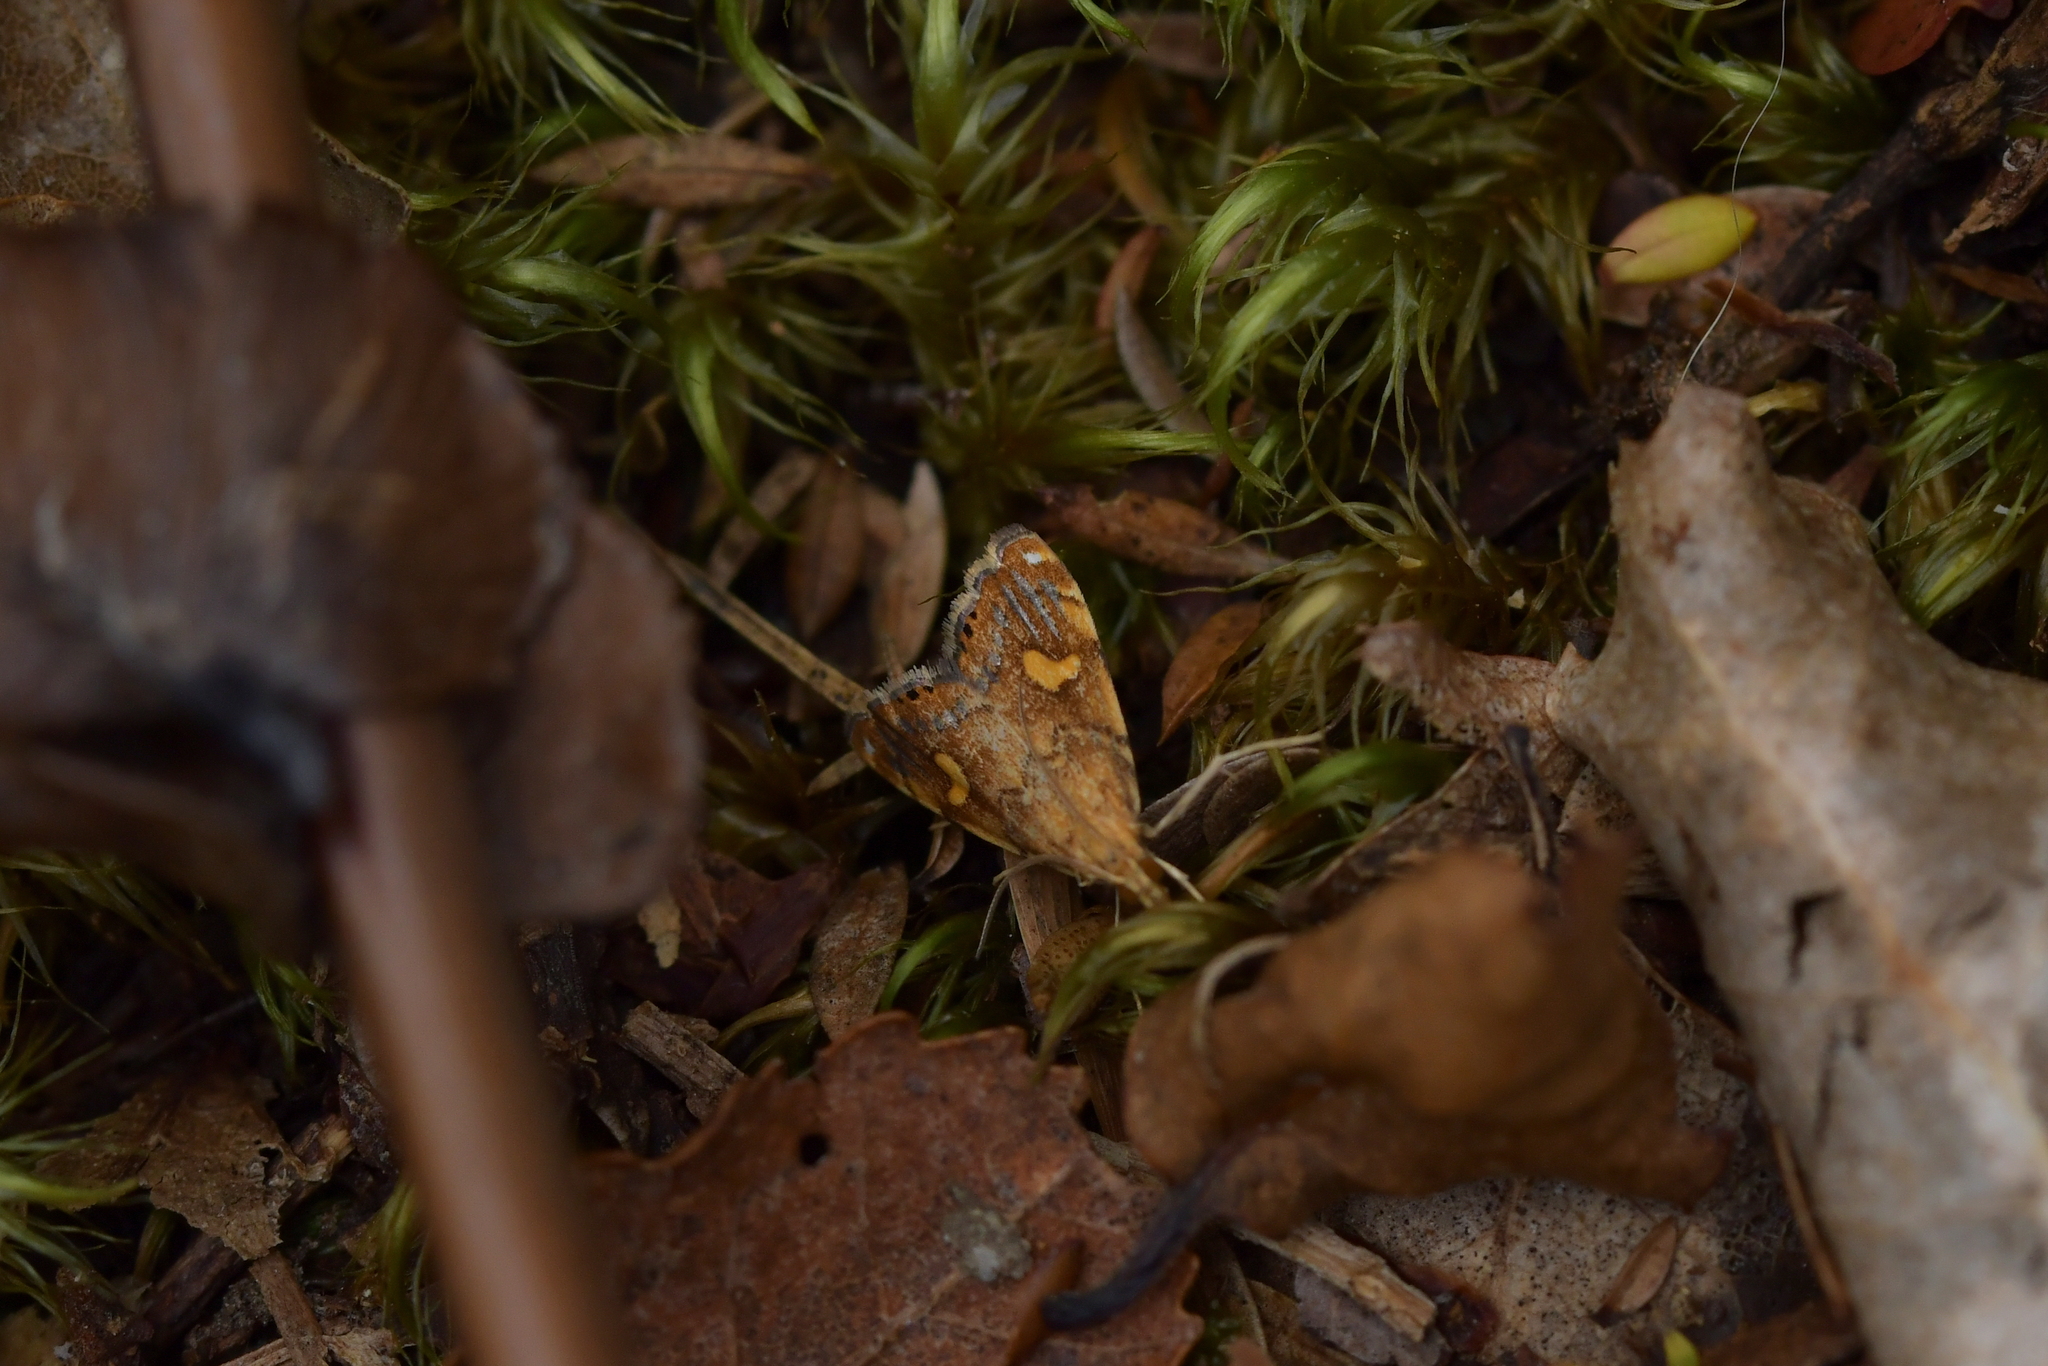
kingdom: Animalia
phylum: Arthropoda
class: Insecta
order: Lepidoptera
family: Crambidae
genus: Glaucocharis
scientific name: Glaucocharis leucoxantha
